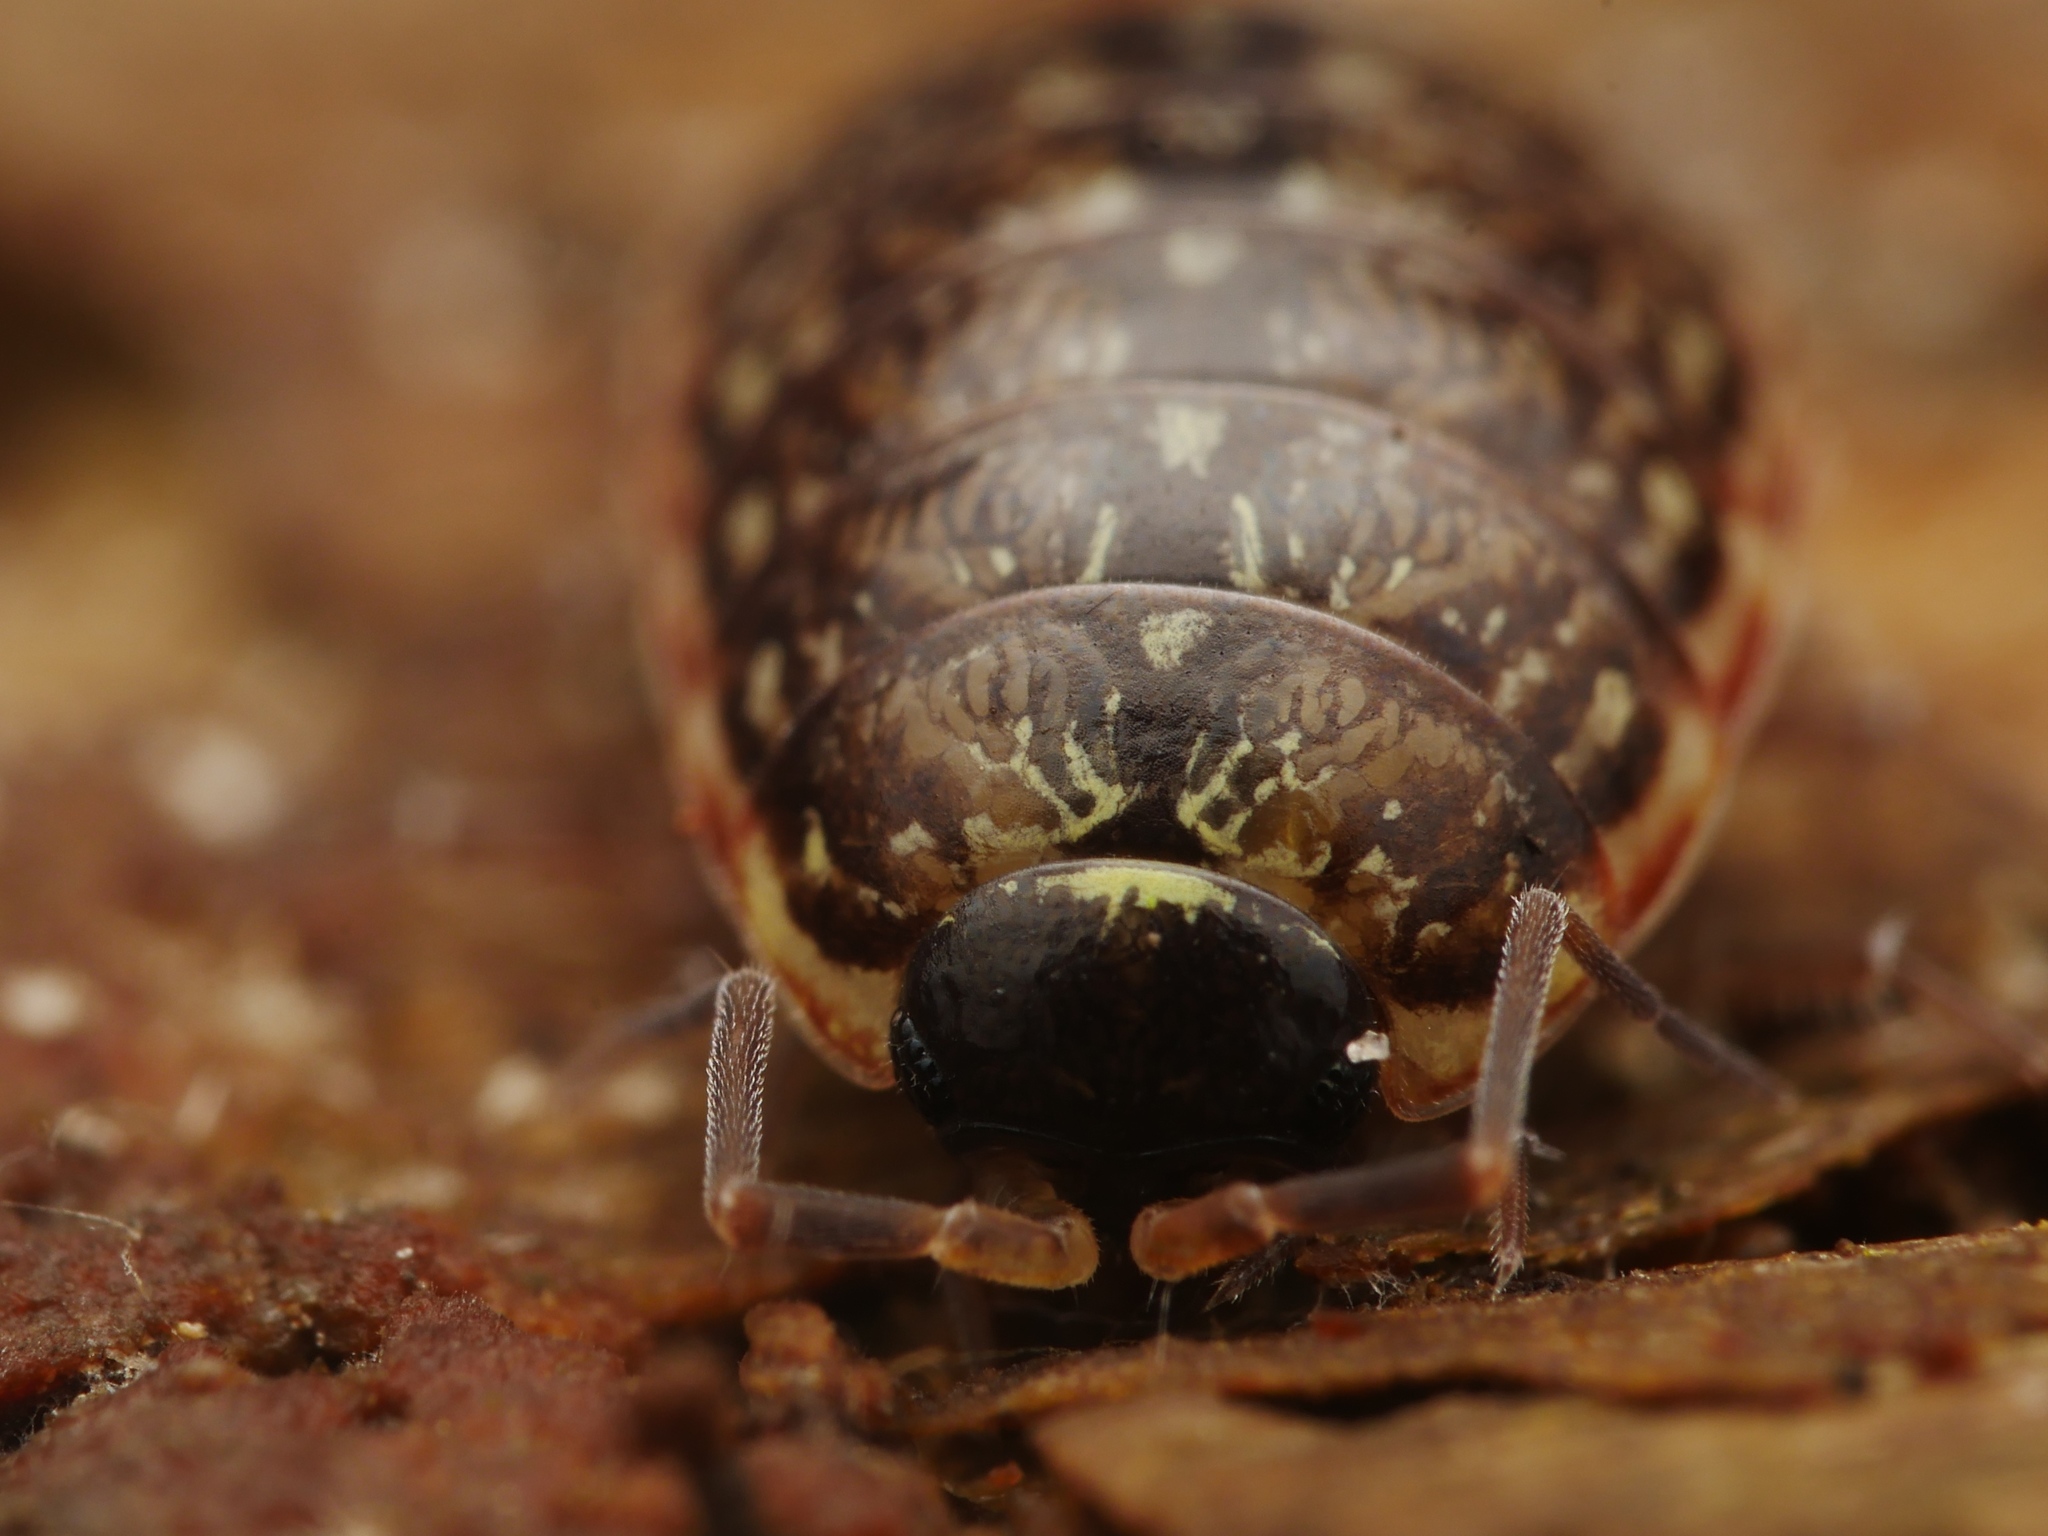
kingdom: Animalia
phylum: Arthropoda
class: Malacostraca
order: Isopoda
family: Philosciidae
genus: Philoscia
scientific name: Philoscia muscorum
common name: Common striped woodlouse
